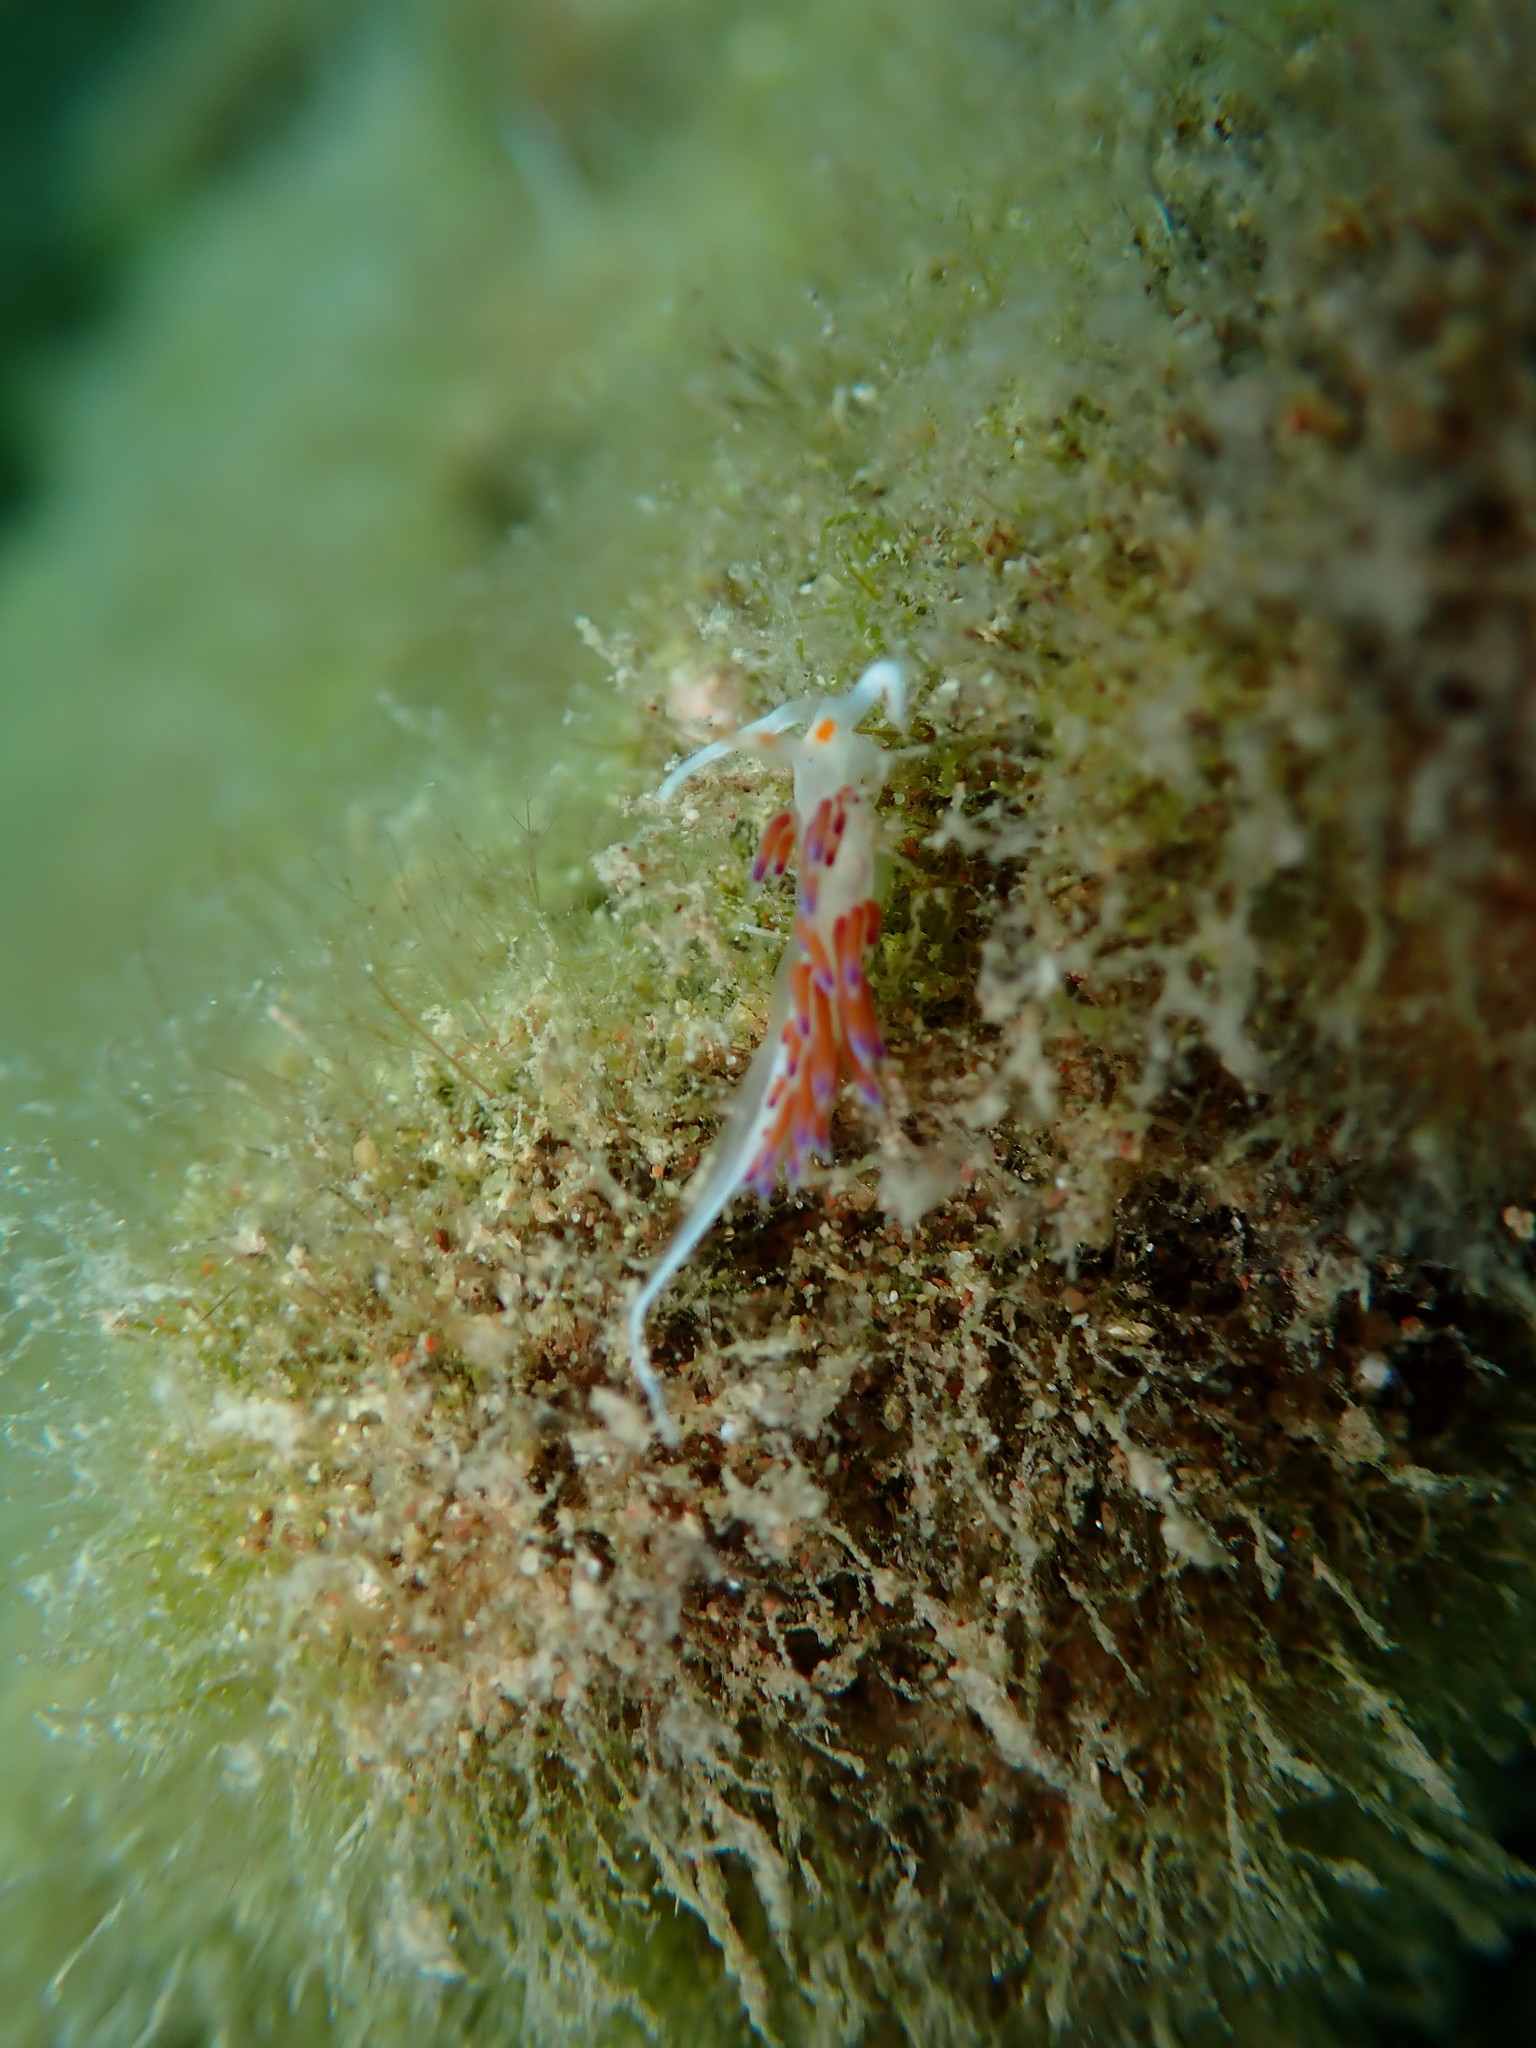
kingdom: Animalia
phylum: Mollusca
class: Gastropoda
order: Nudibranchia
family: Facelinidae
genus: Cratena
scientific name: Cratena peregrina
